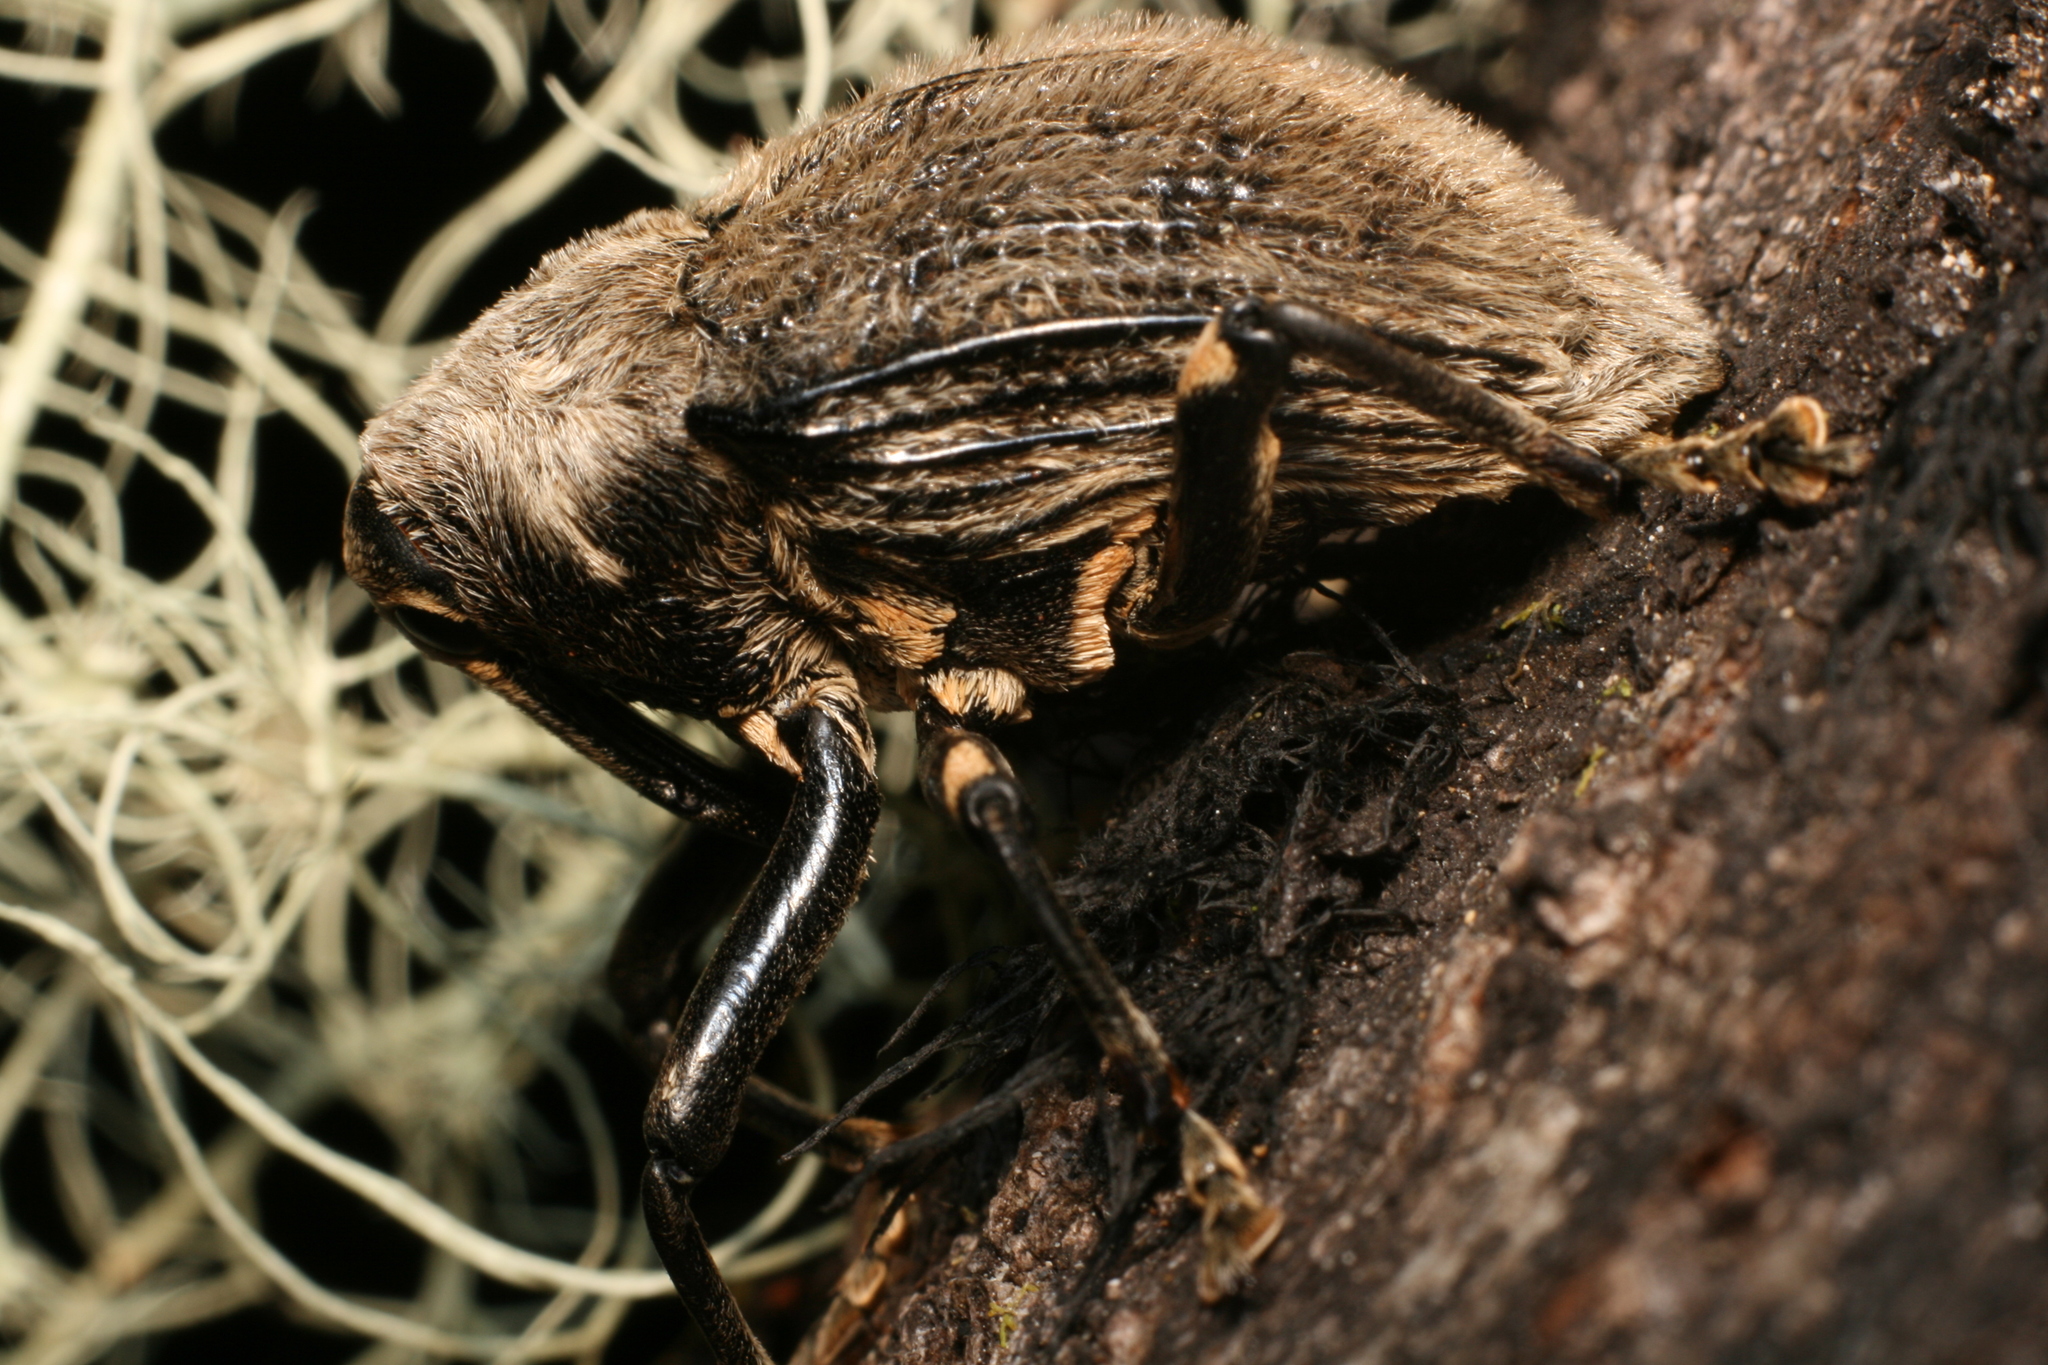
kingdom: Animalia
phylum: Arthropoda
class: Insecta
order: Coleoptera
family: Curculionidae
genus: Rhynchodes
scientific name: Rhynchodes ursus
